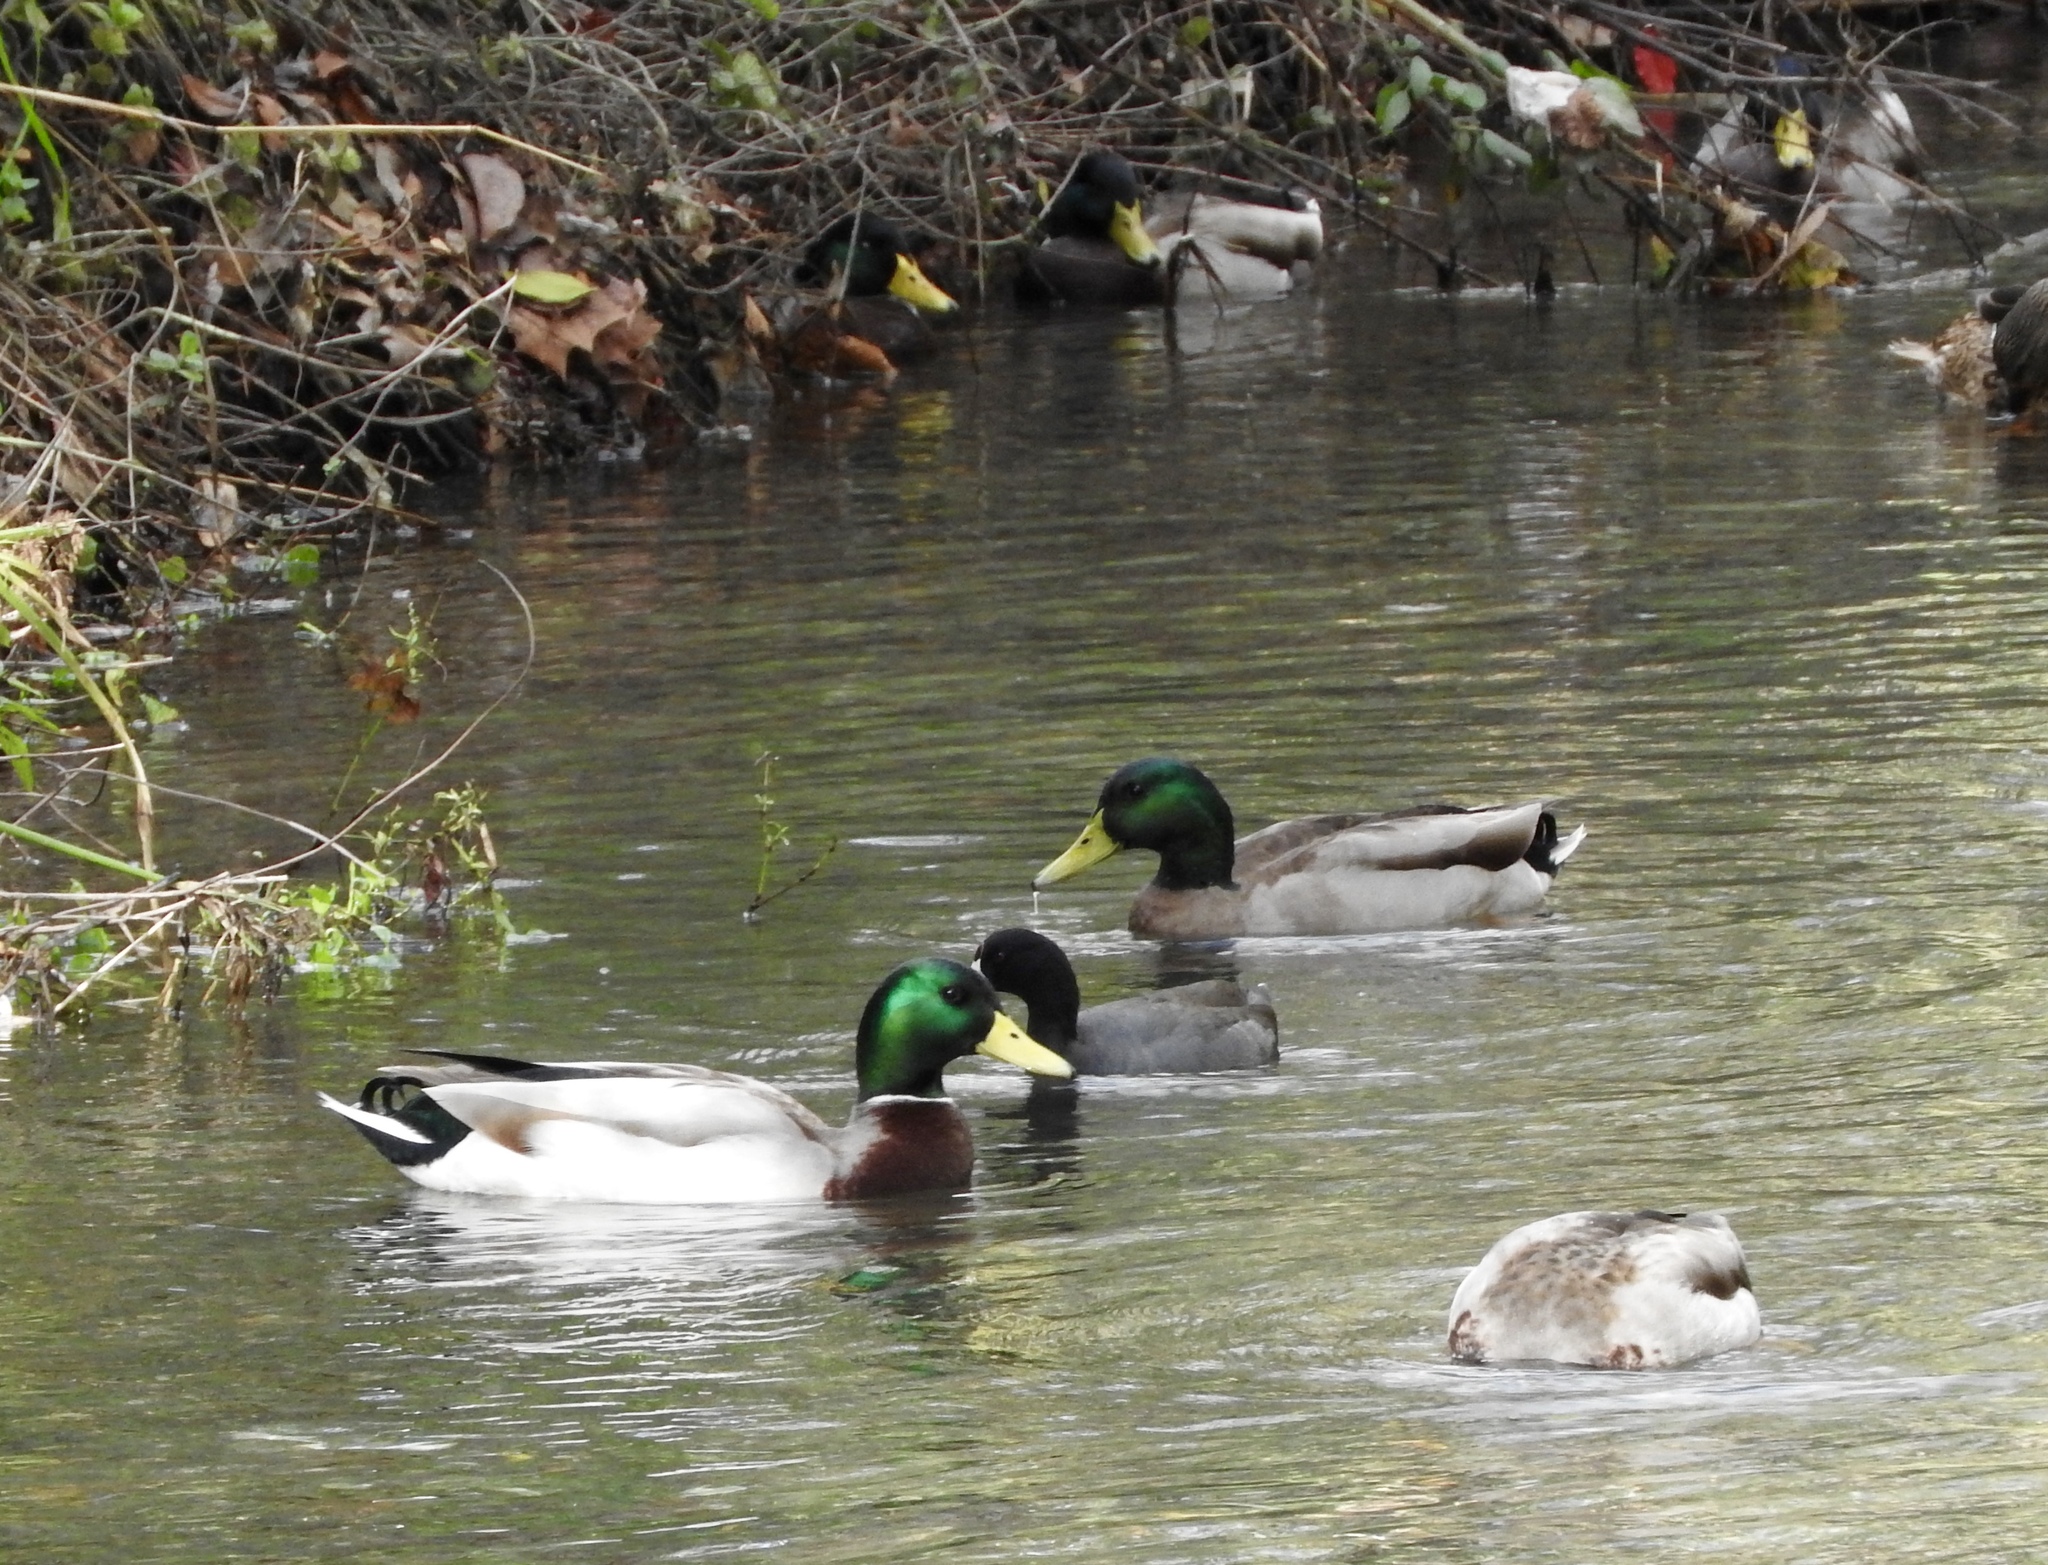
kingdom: Animalia
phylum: Chordata
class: Aves
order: Anseriformes
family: Anatidae
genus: Anas
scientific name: Anas platyrhynchos
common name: Mallard
